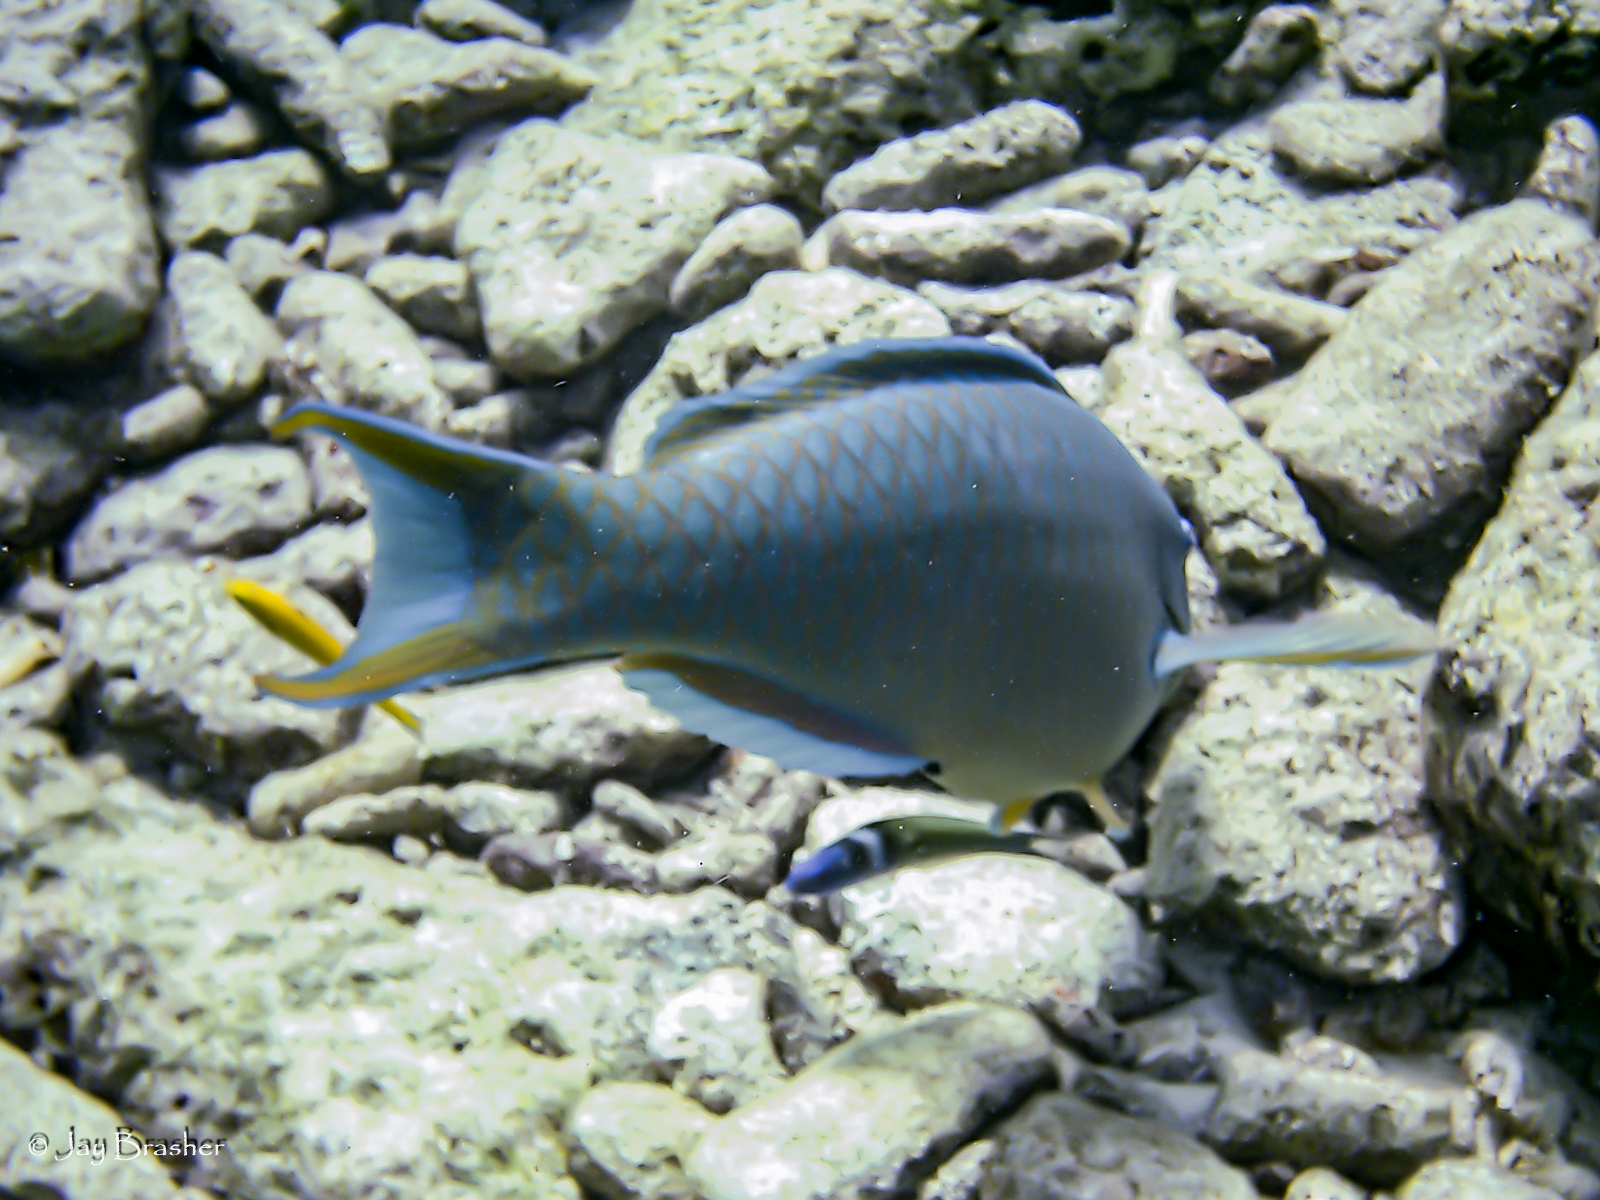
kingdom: Animalia
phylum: Chordata
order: Perciformes
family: Labridae
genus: Thalassoma
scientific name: Thalassoma bifasciatum
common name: Bluehead wrasse
